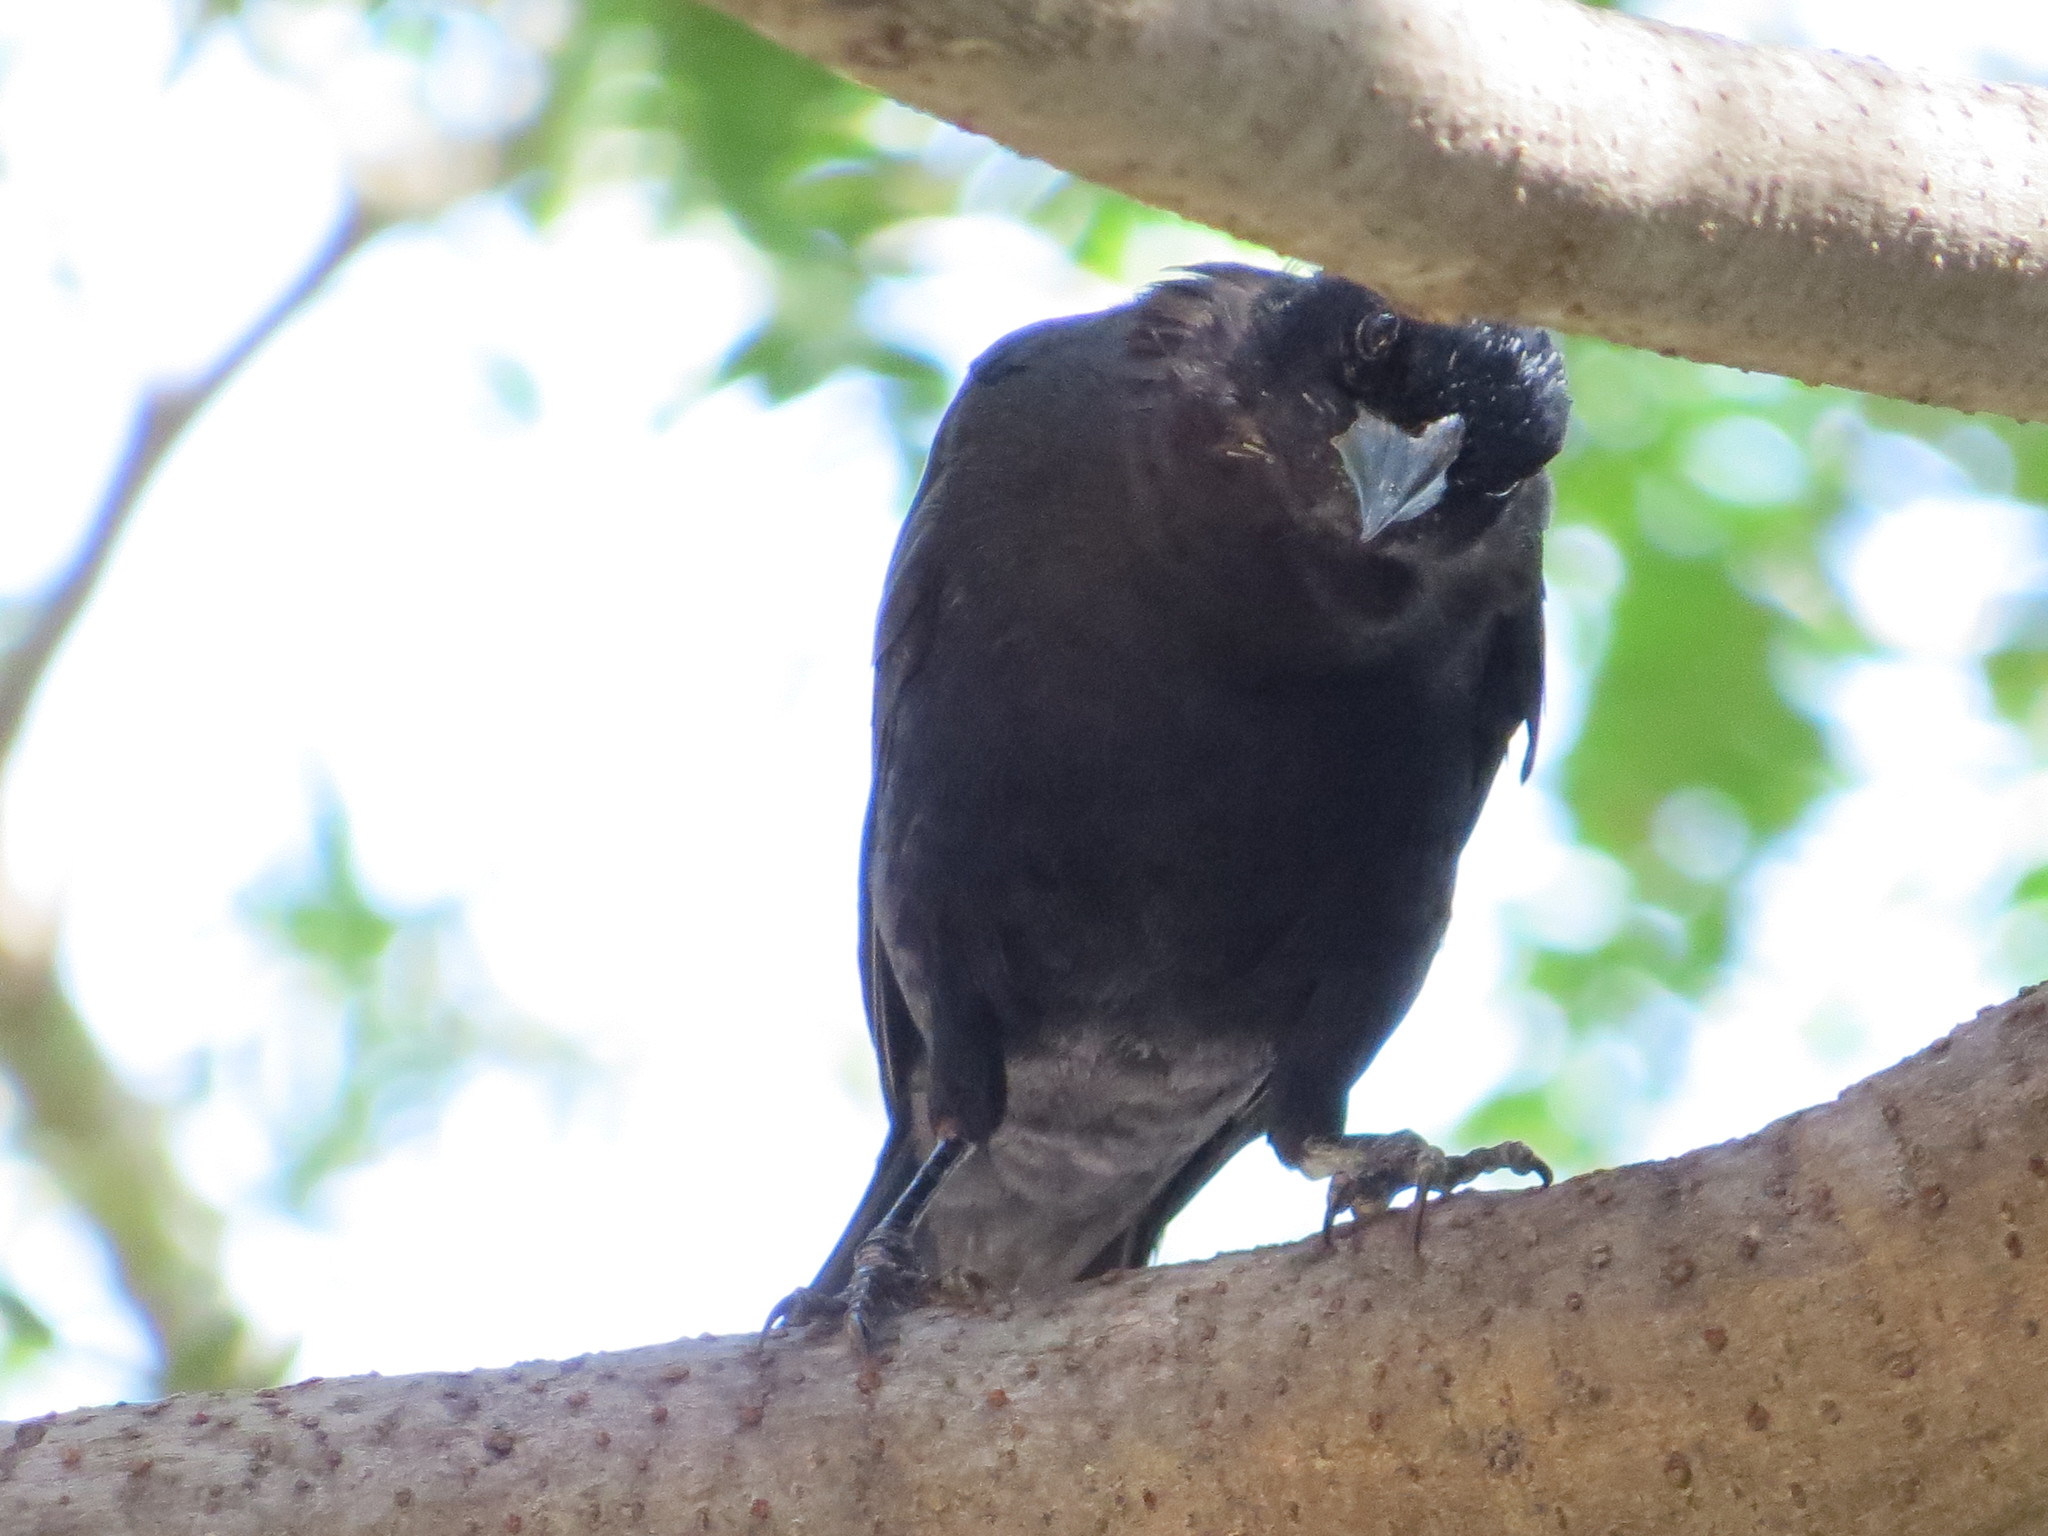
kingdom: Animalia
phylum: Chordata
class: Aves
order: Passeriformes
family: Icteridae
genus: Molothrus
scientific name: Molothrus bonariensis
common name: Shiny cowbird
